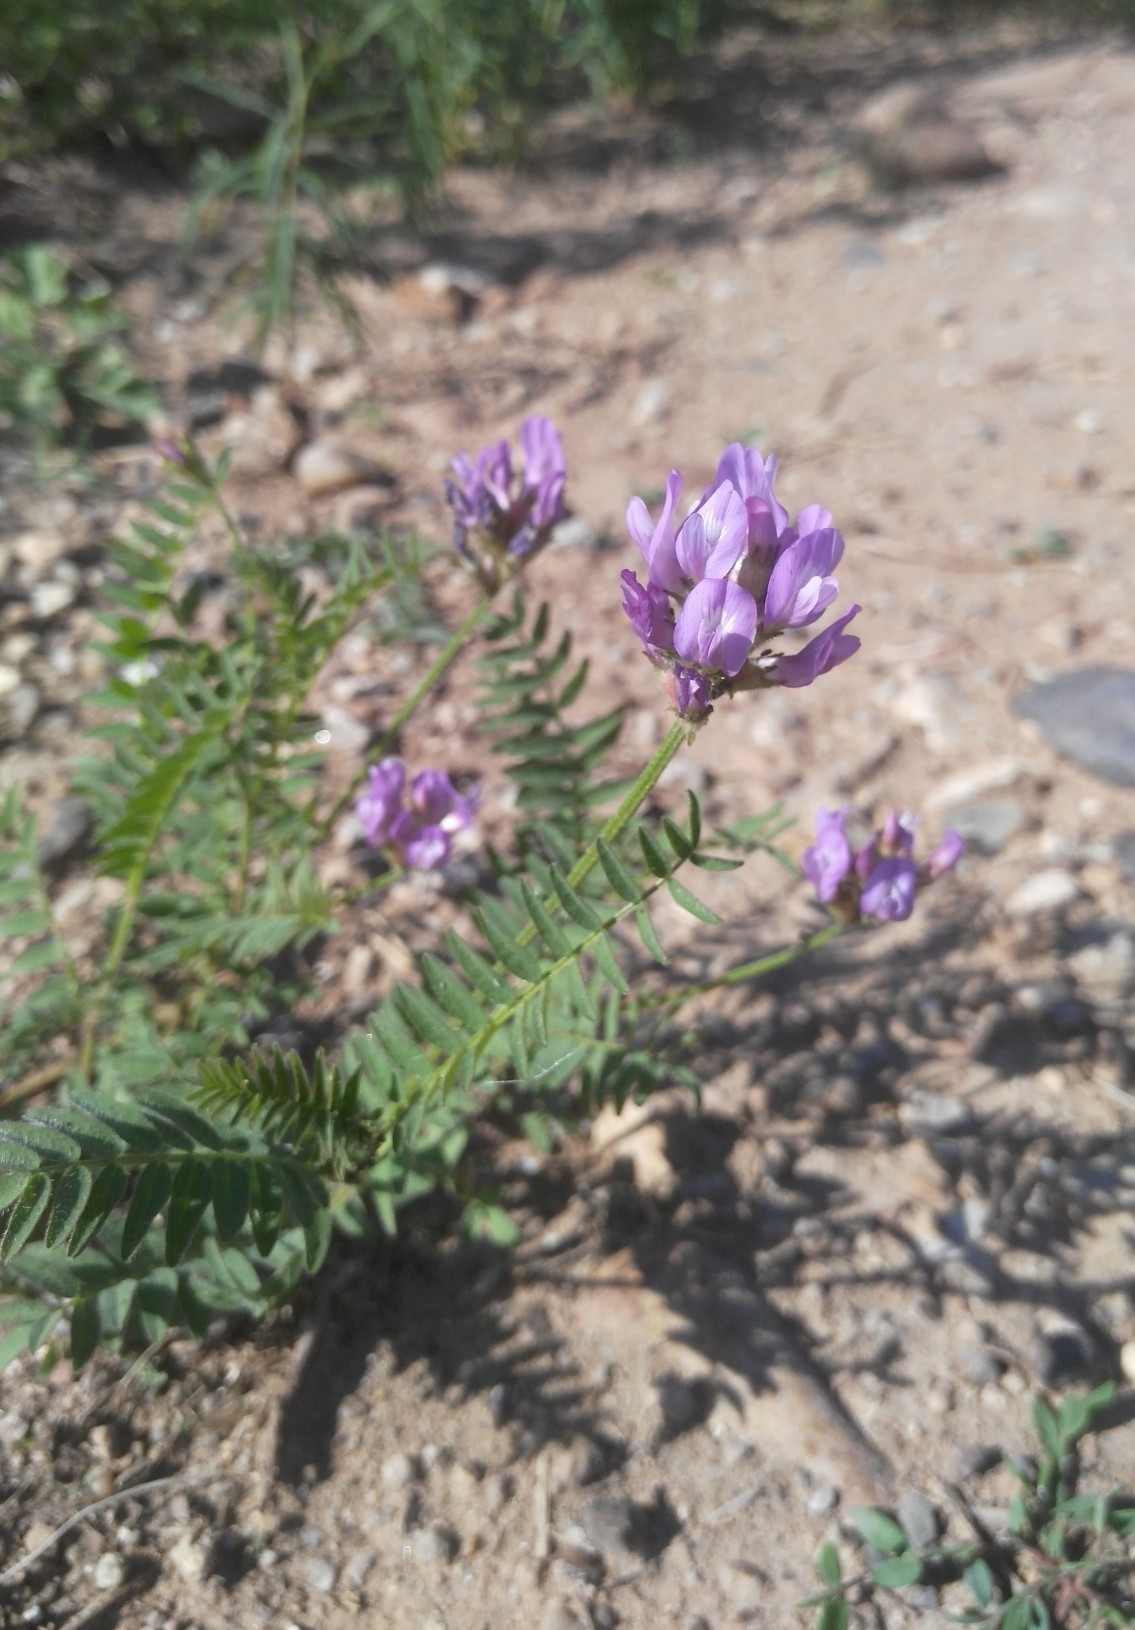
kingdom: Plantae
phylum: Tracheophyta
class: Magnoliopsida
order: Fabales
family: Fabaceae
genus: Astragalus
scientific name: Astragalus danicus
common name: Purple milk-vetch
